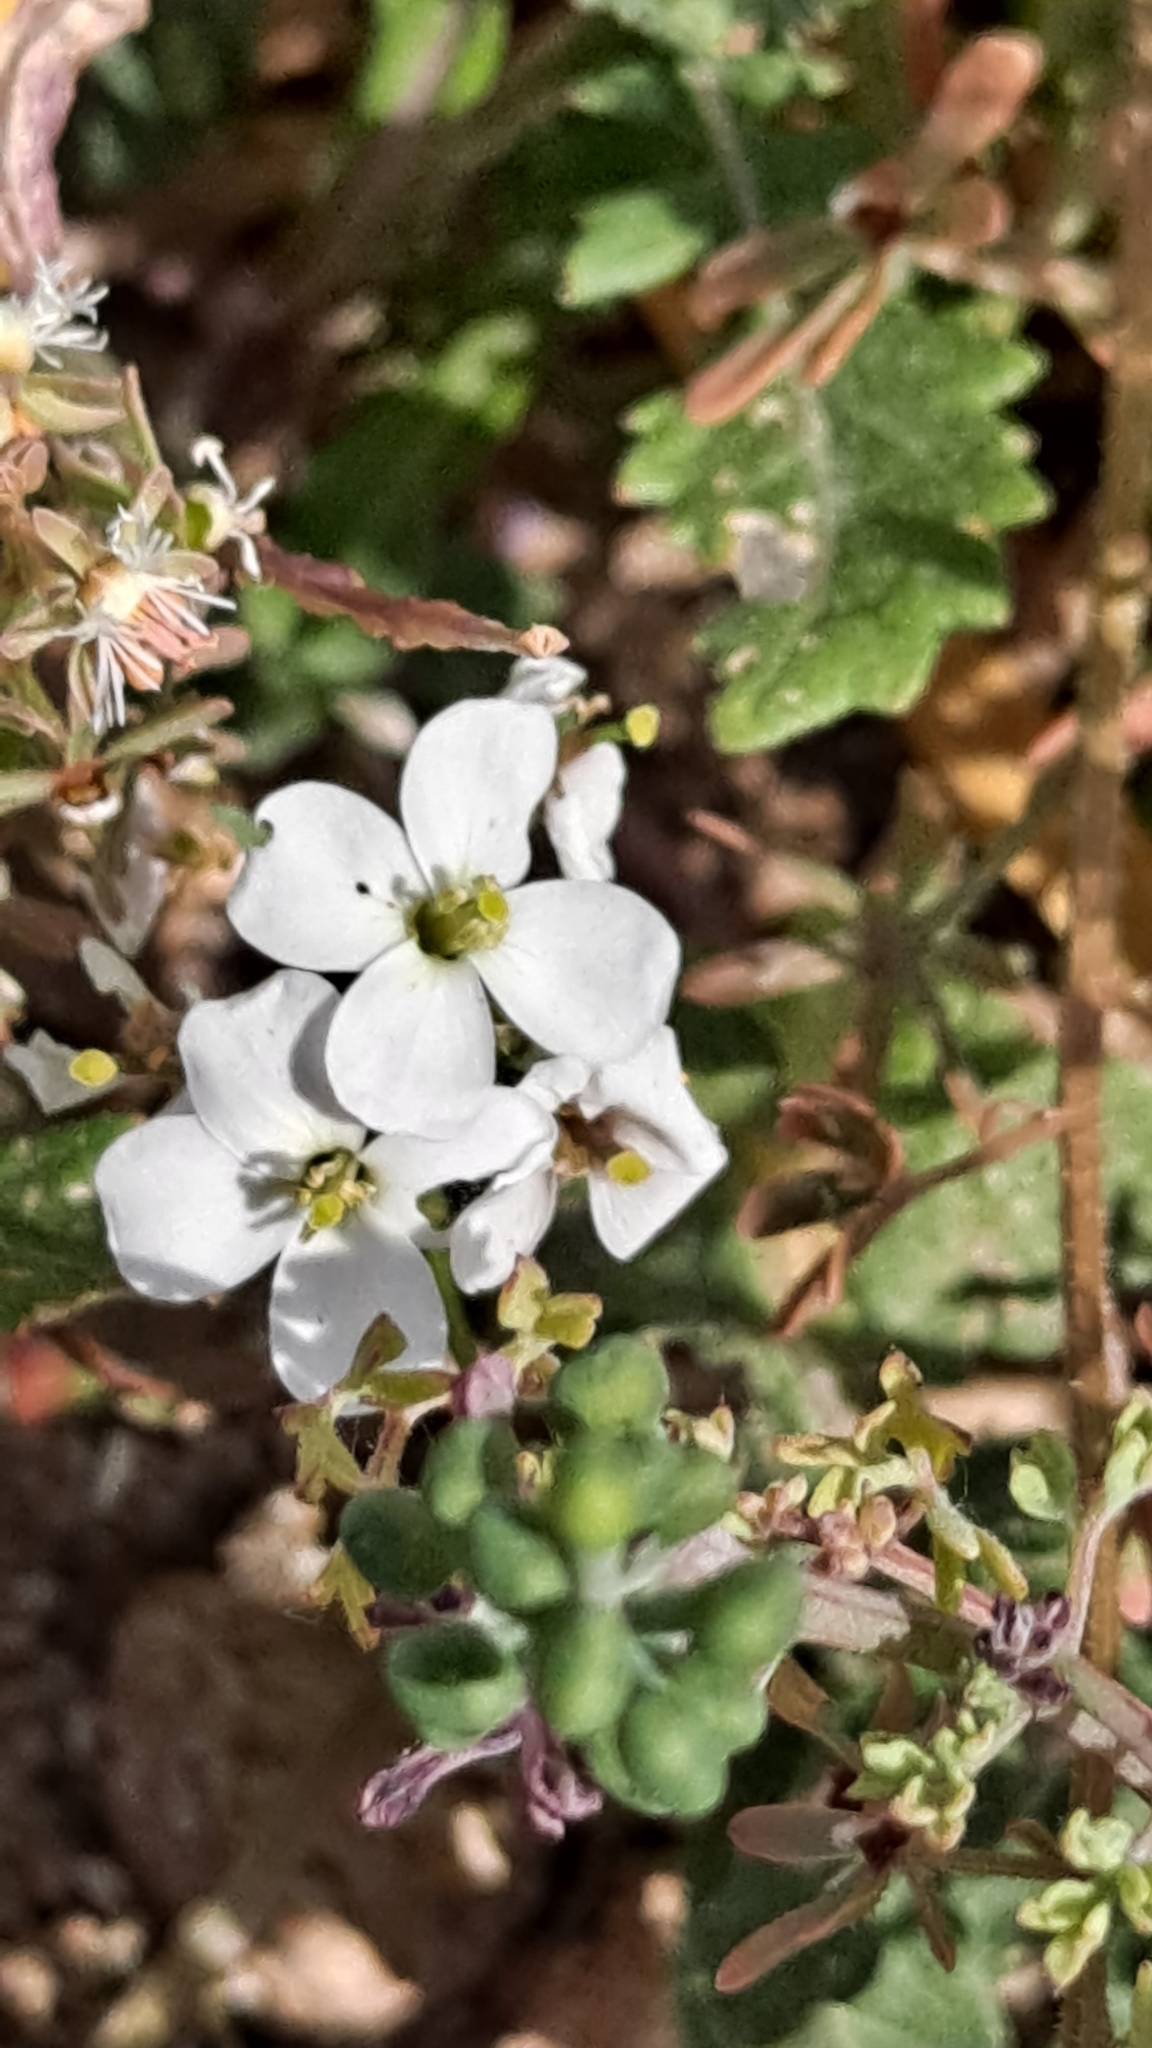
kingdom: Plantae
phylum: Tracheophyta
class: Magnoliopsida
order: Brassicales
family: Brassicaceae
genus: Diplotaxis
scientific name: Diplotaxis erucoides
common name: White rocket
